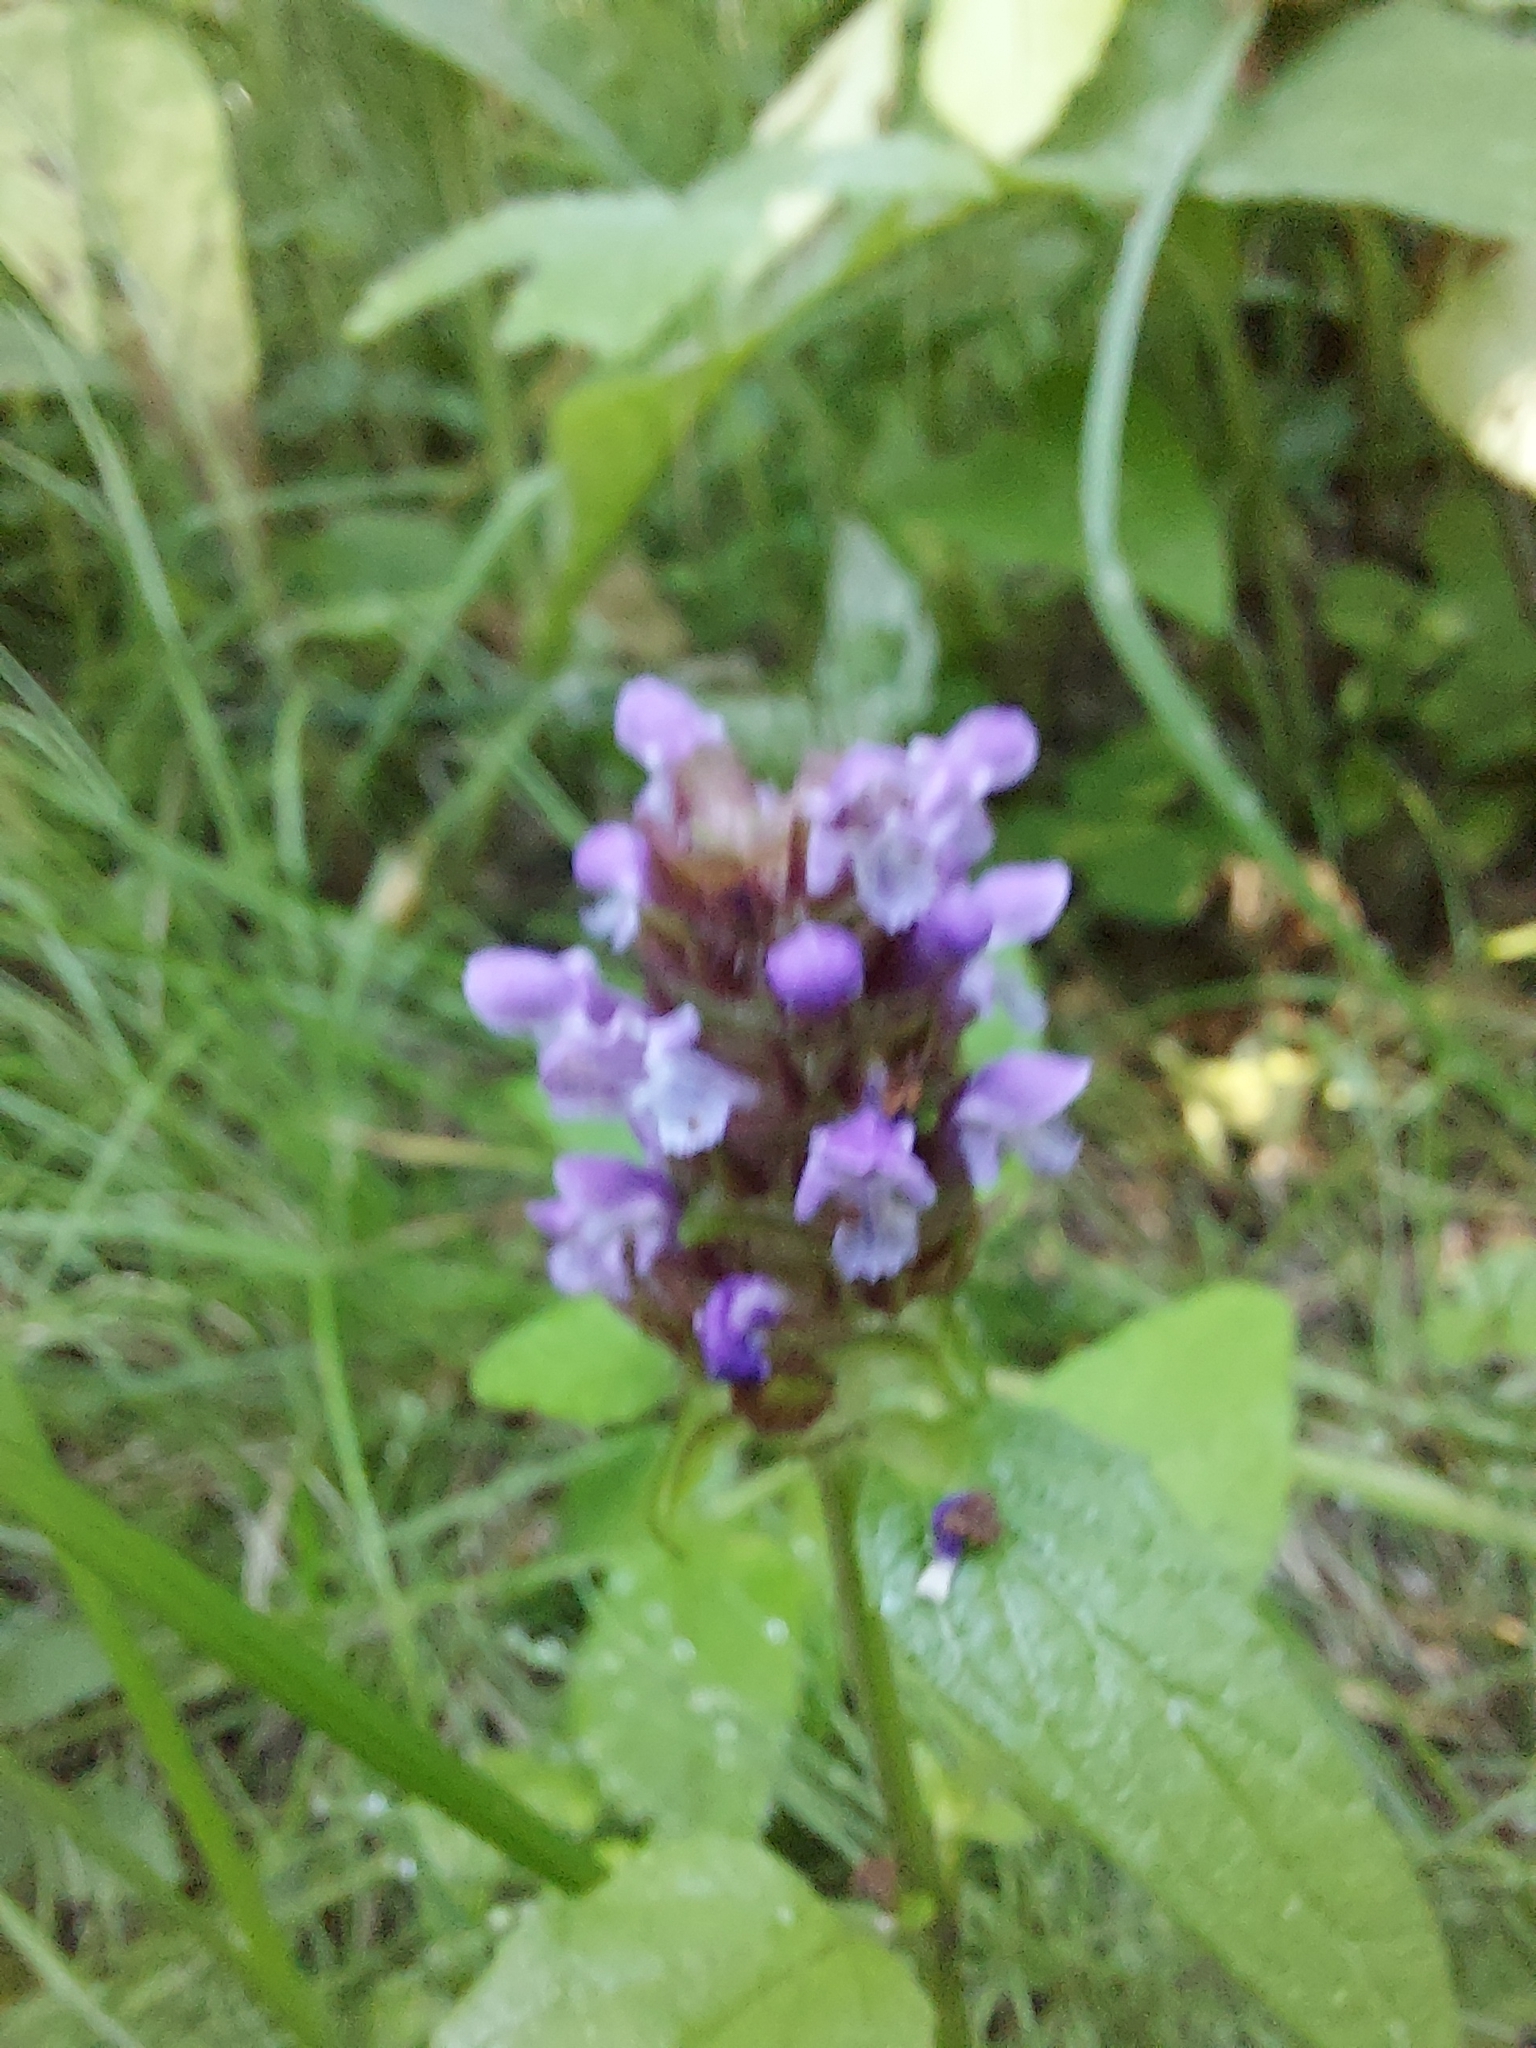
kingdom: Plantae
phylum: Tracheophyta
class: Magnoliopsida
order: Lamiales
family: Lamiaceae
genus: Prunella
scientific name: Prunella vulgaris
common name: Heal-all
